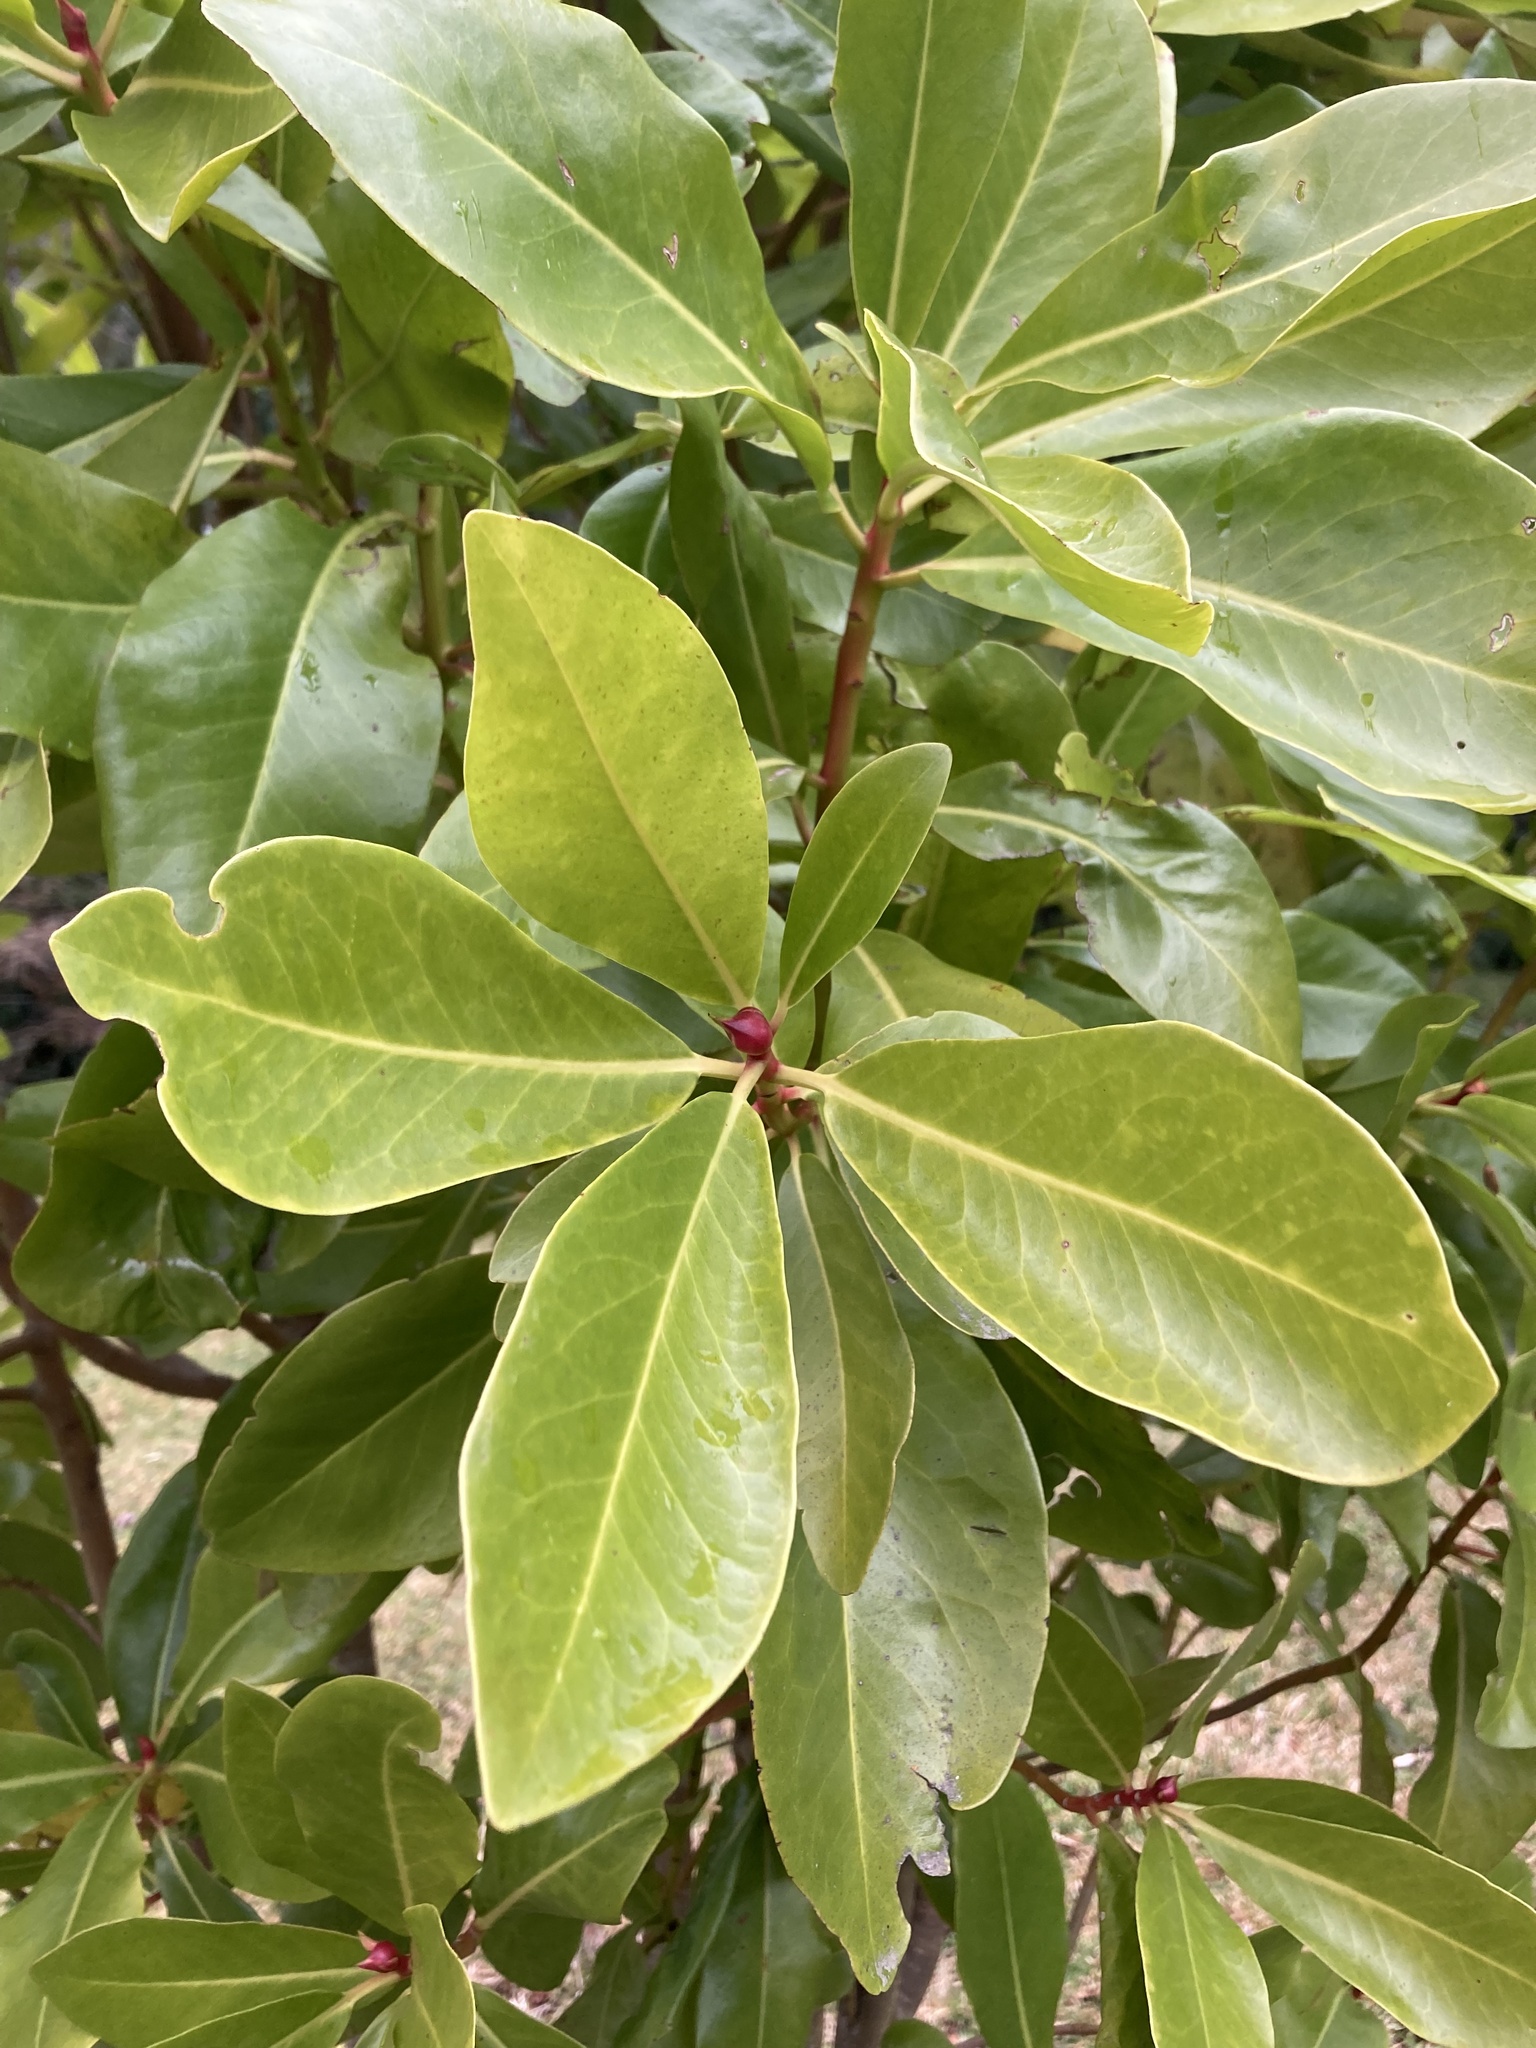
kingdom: Plantae
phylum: Tracheophyta
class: Magnoliopsida
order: Canellales
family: Winteraceae
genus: Drimys
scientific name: Drimys winteri
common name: Winter's-bark
